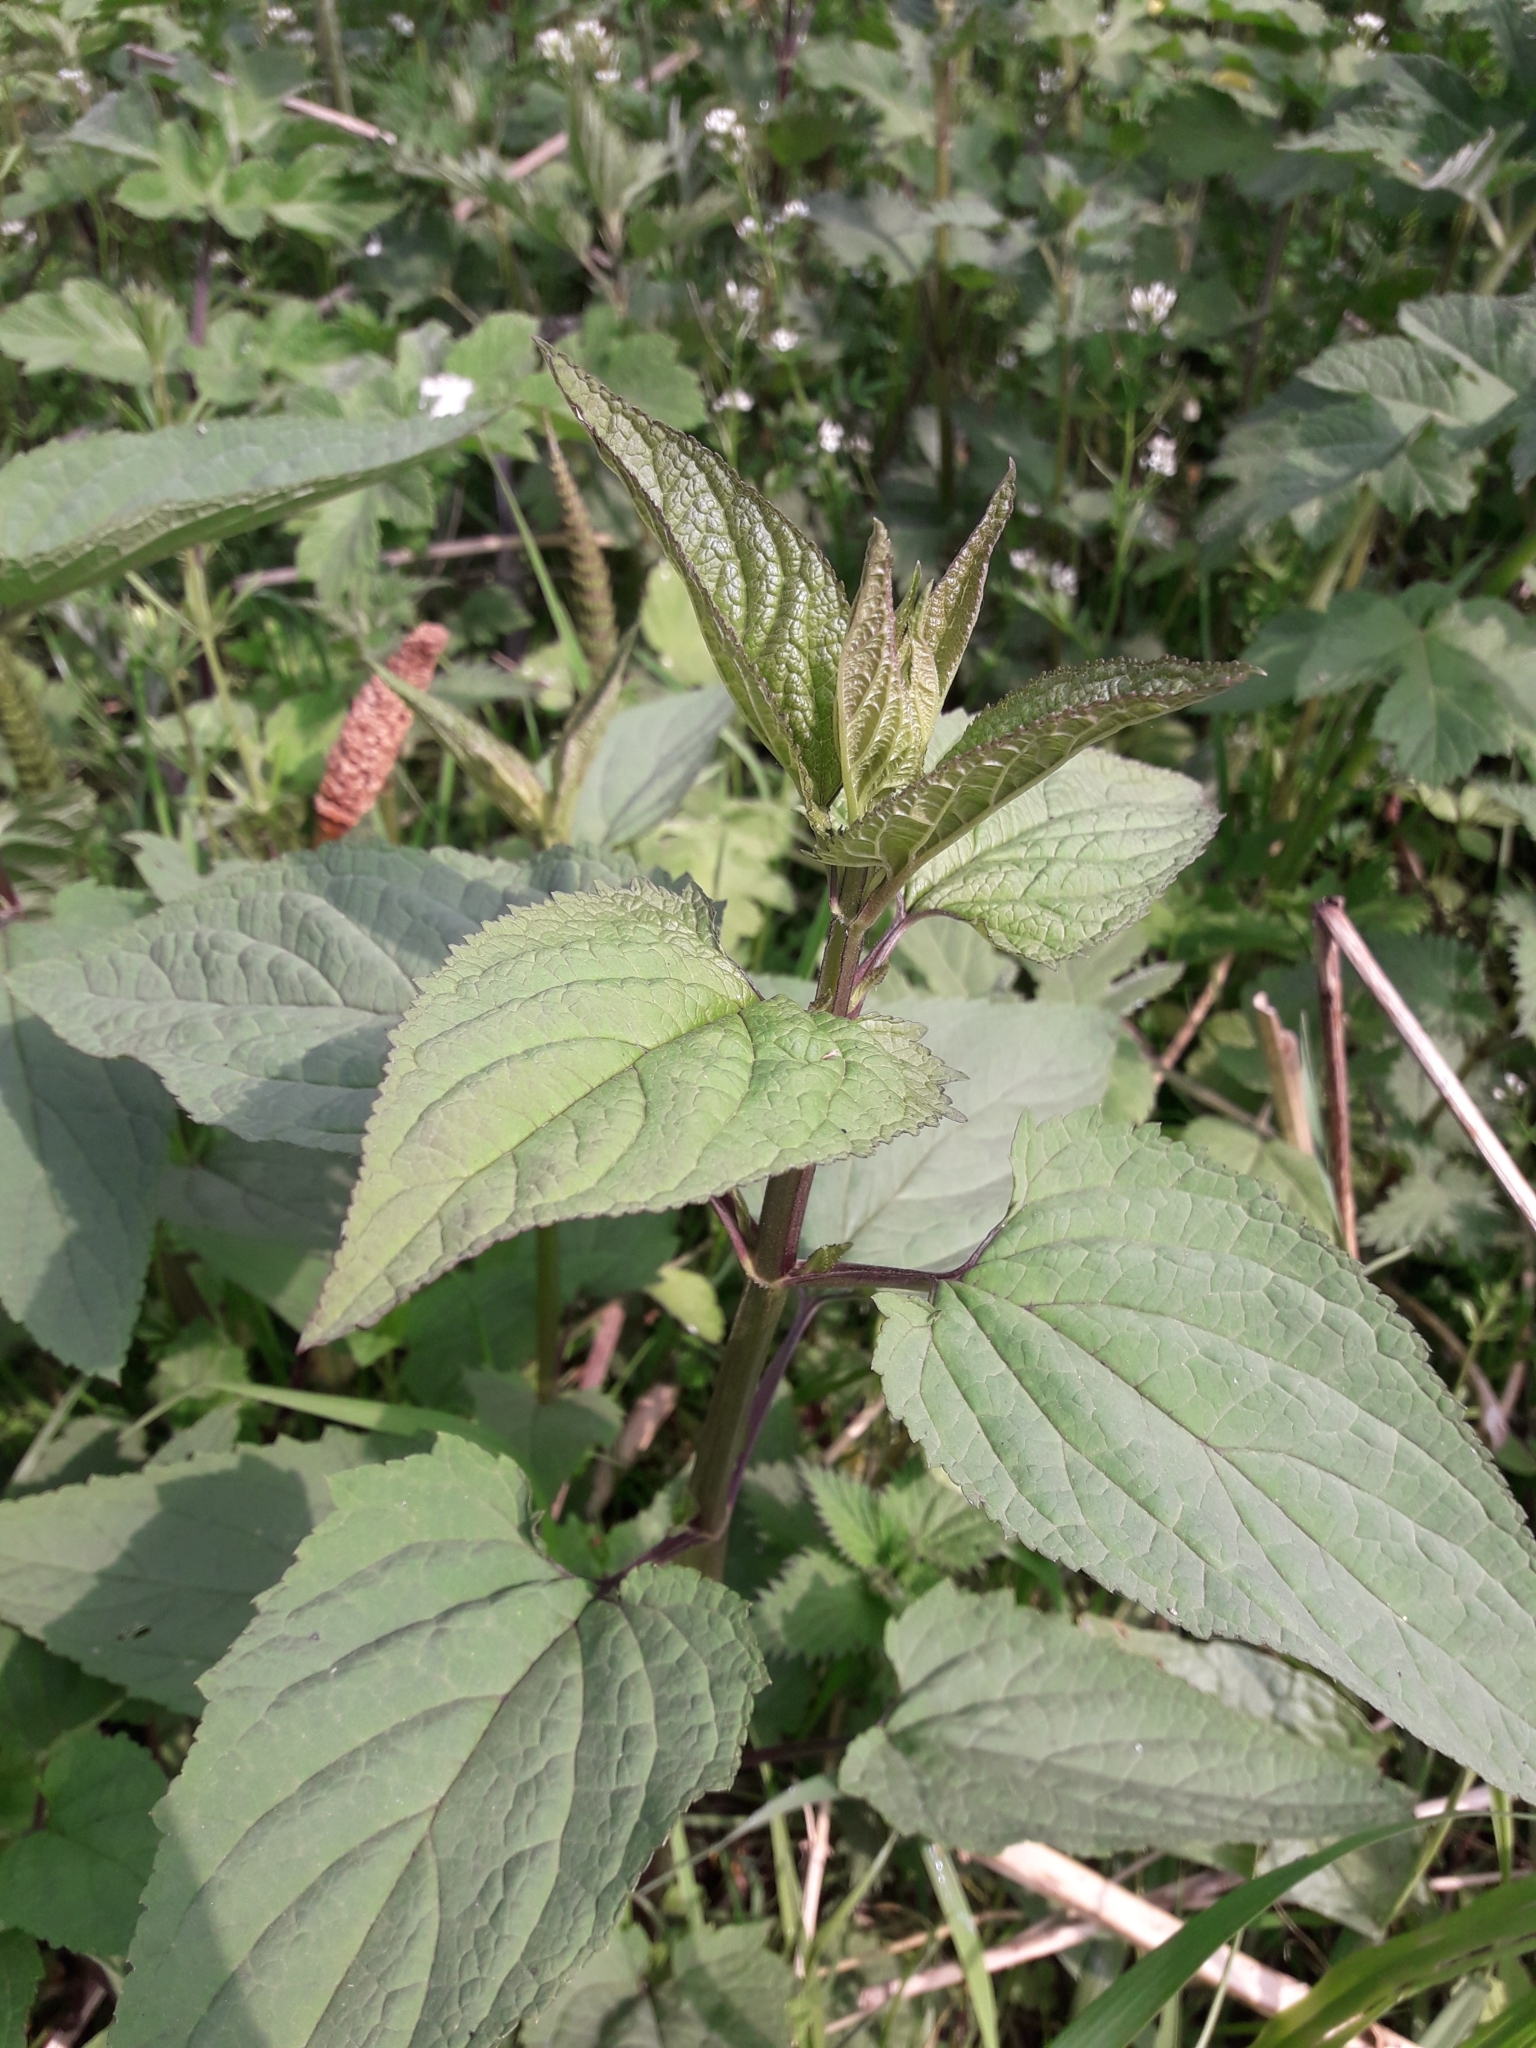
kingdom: Plantae
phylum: Tracheophyta
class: Magnoliopsida
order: Lamiales
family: Scrophulariaceae
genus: Scrophularia
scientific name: Scrophularia nodosa
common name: Common figwort
